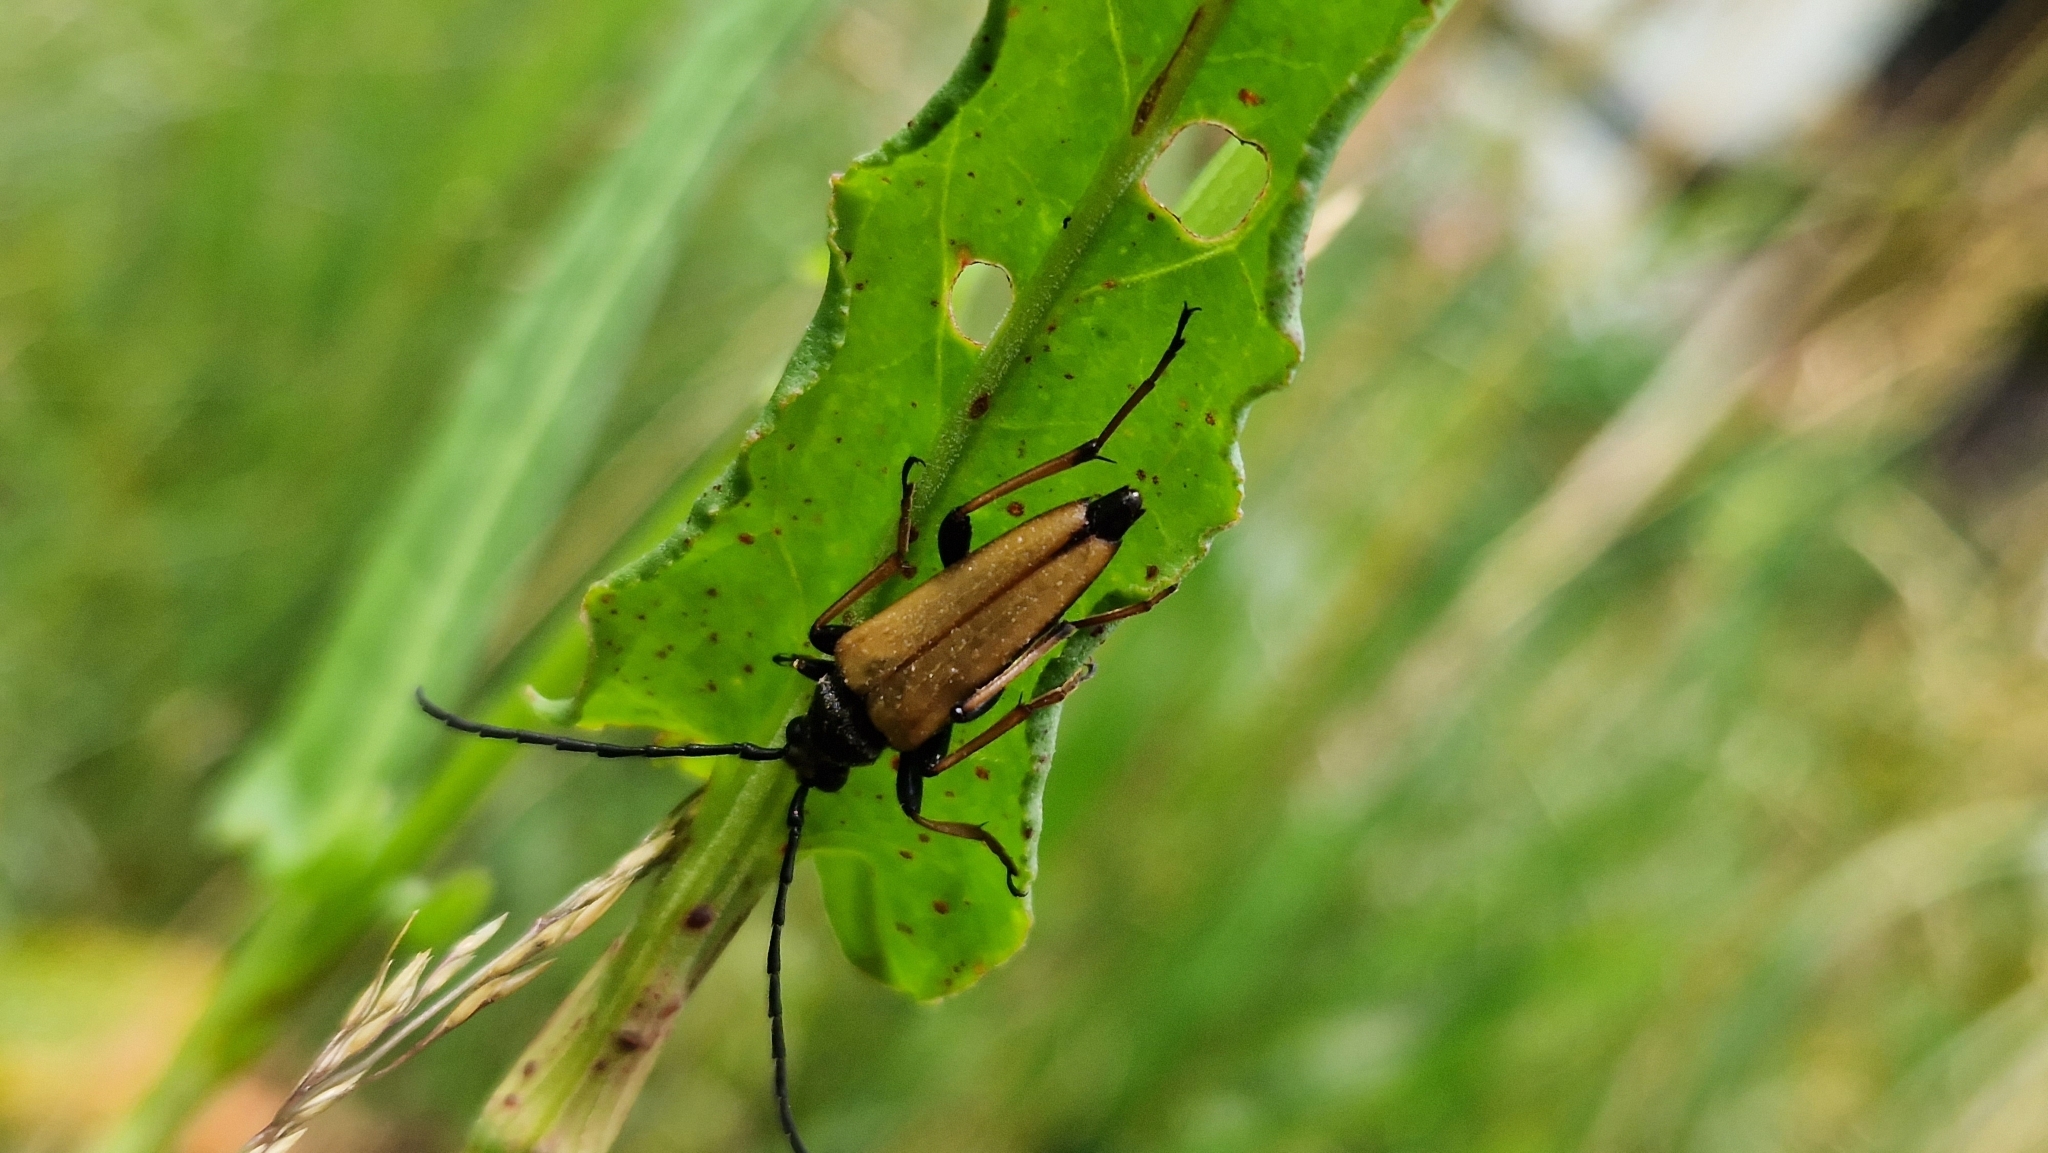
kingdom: Animalia
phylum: Arthropoda
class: Insecta
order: Coleoptera
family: Cerambycidae
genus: Stictoleptura
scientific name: Stictoleptura rubra
